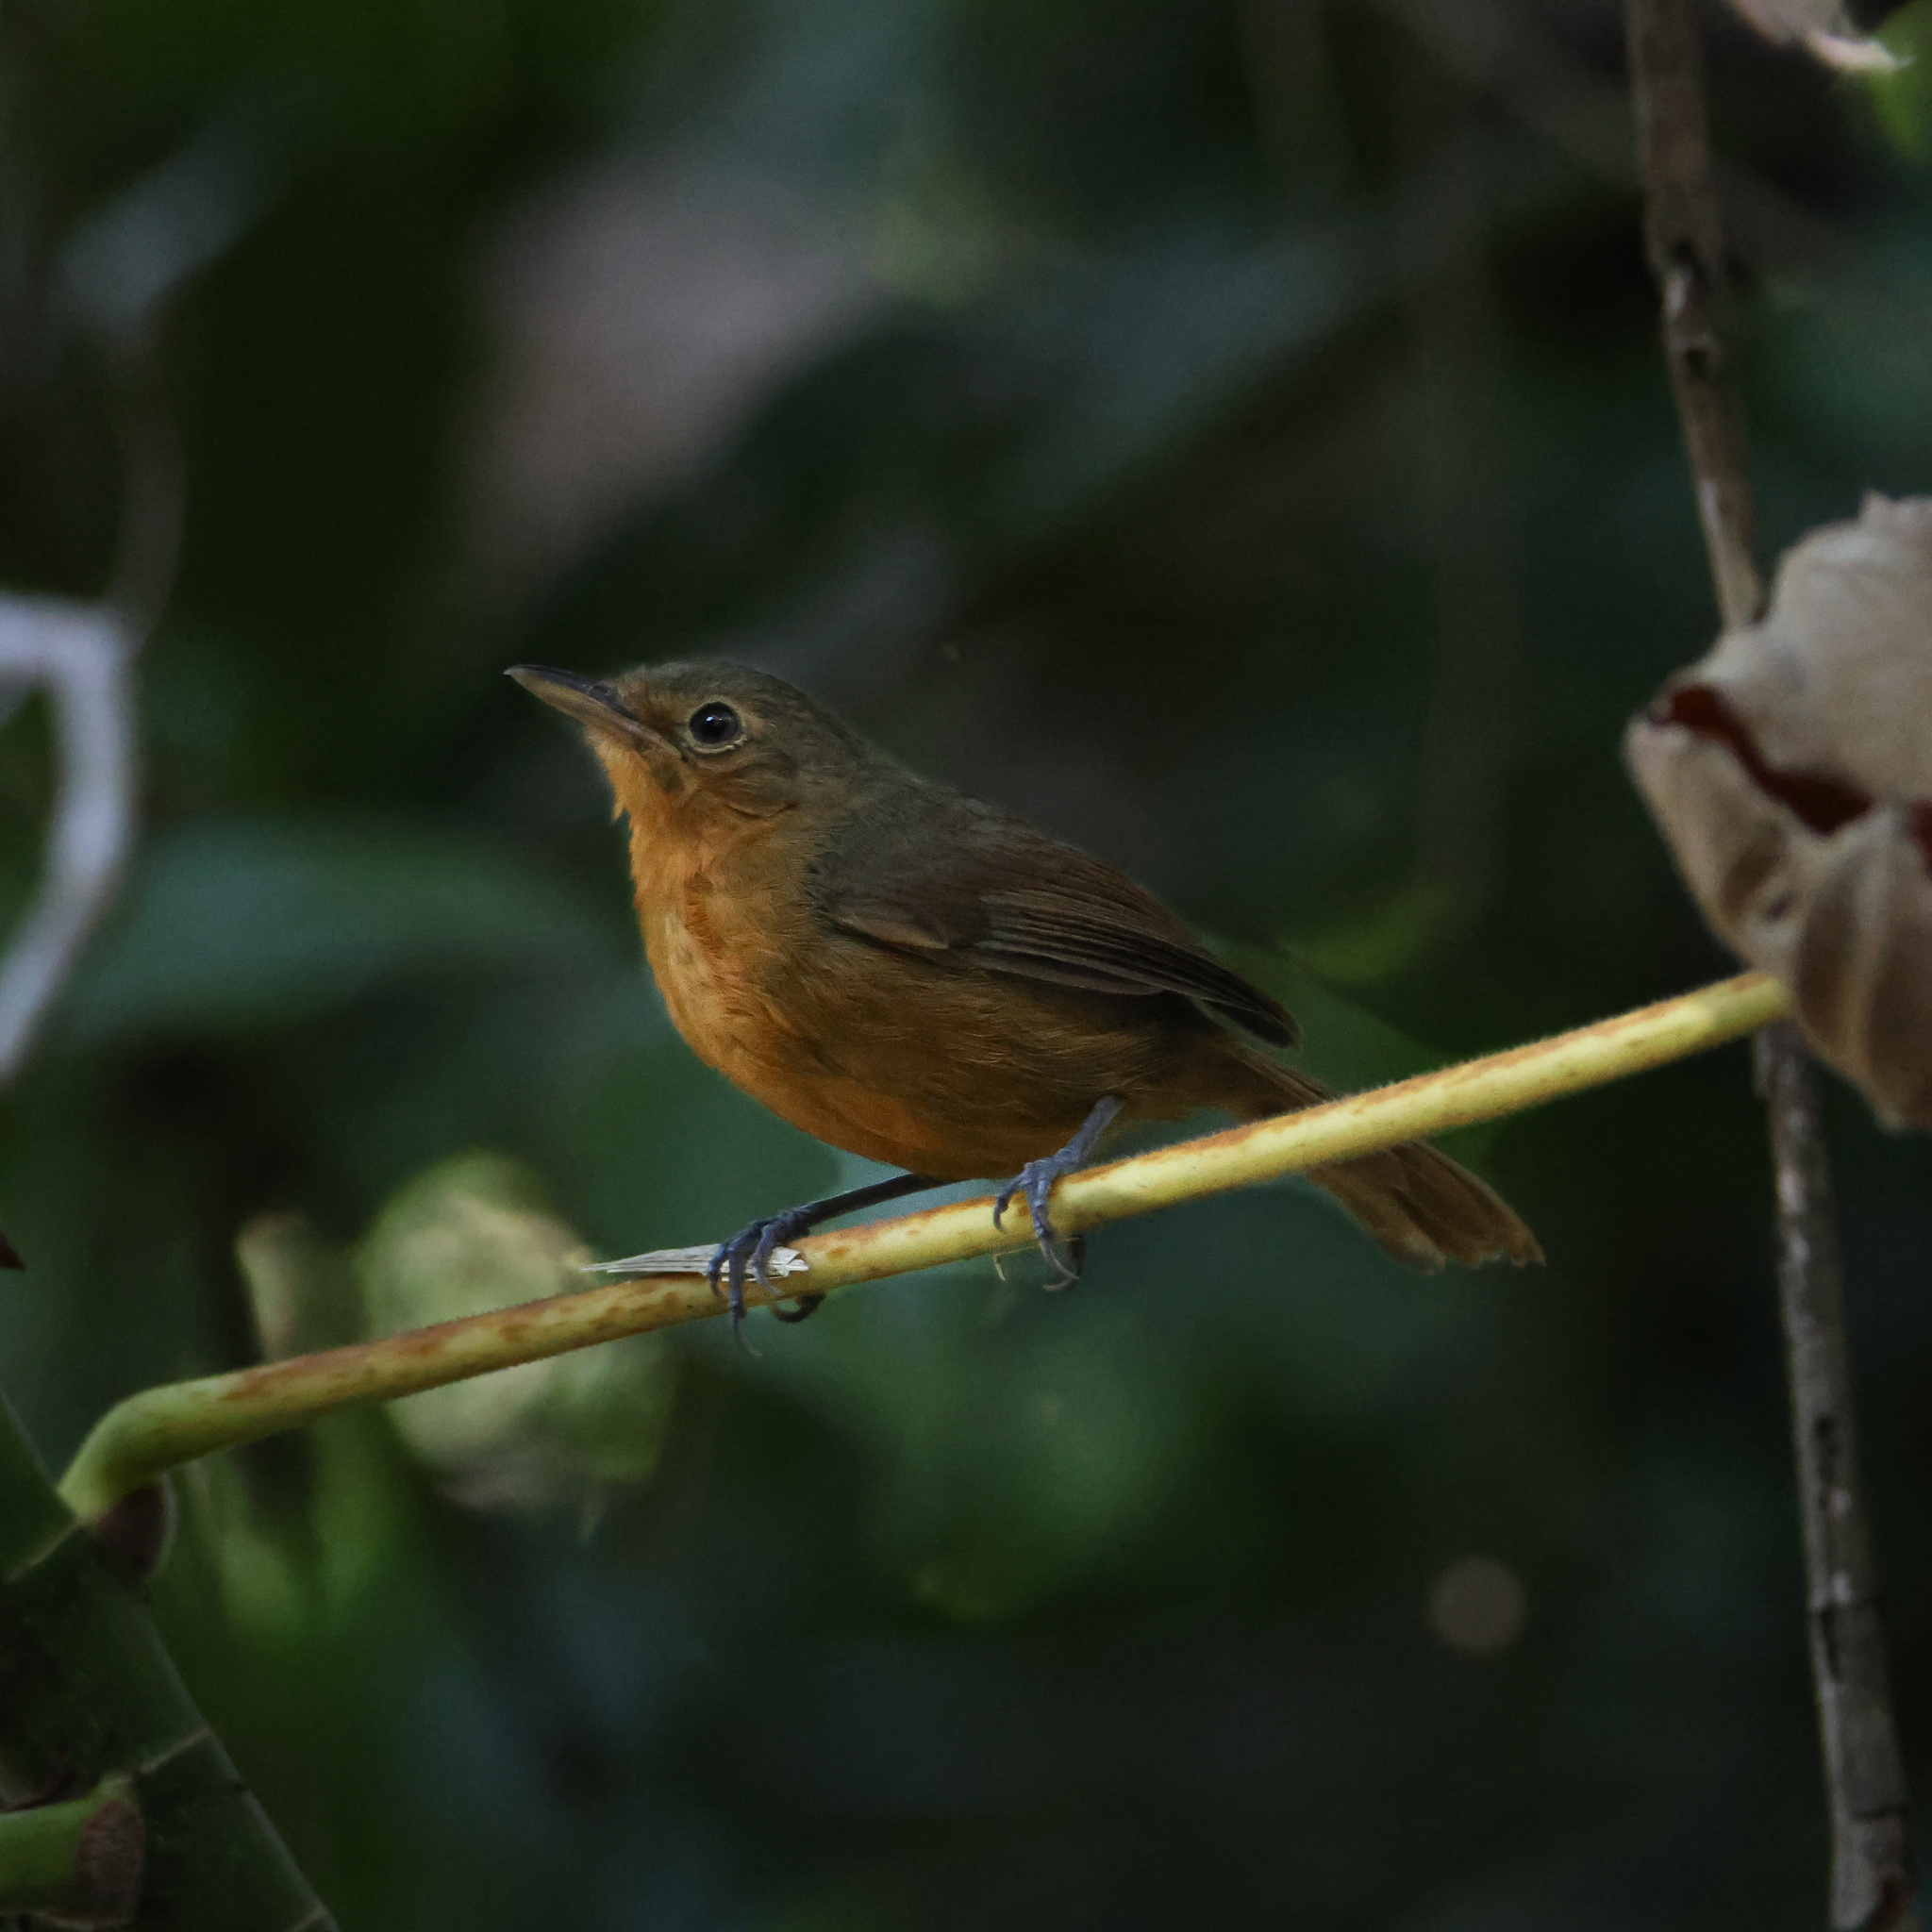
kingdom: Animalia
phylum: Chordata
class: Aves
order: Passeriformes
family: Thamnophilidae
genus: Cercomacra
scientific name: Cercomacra tyrannina
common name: Dusky antbird
